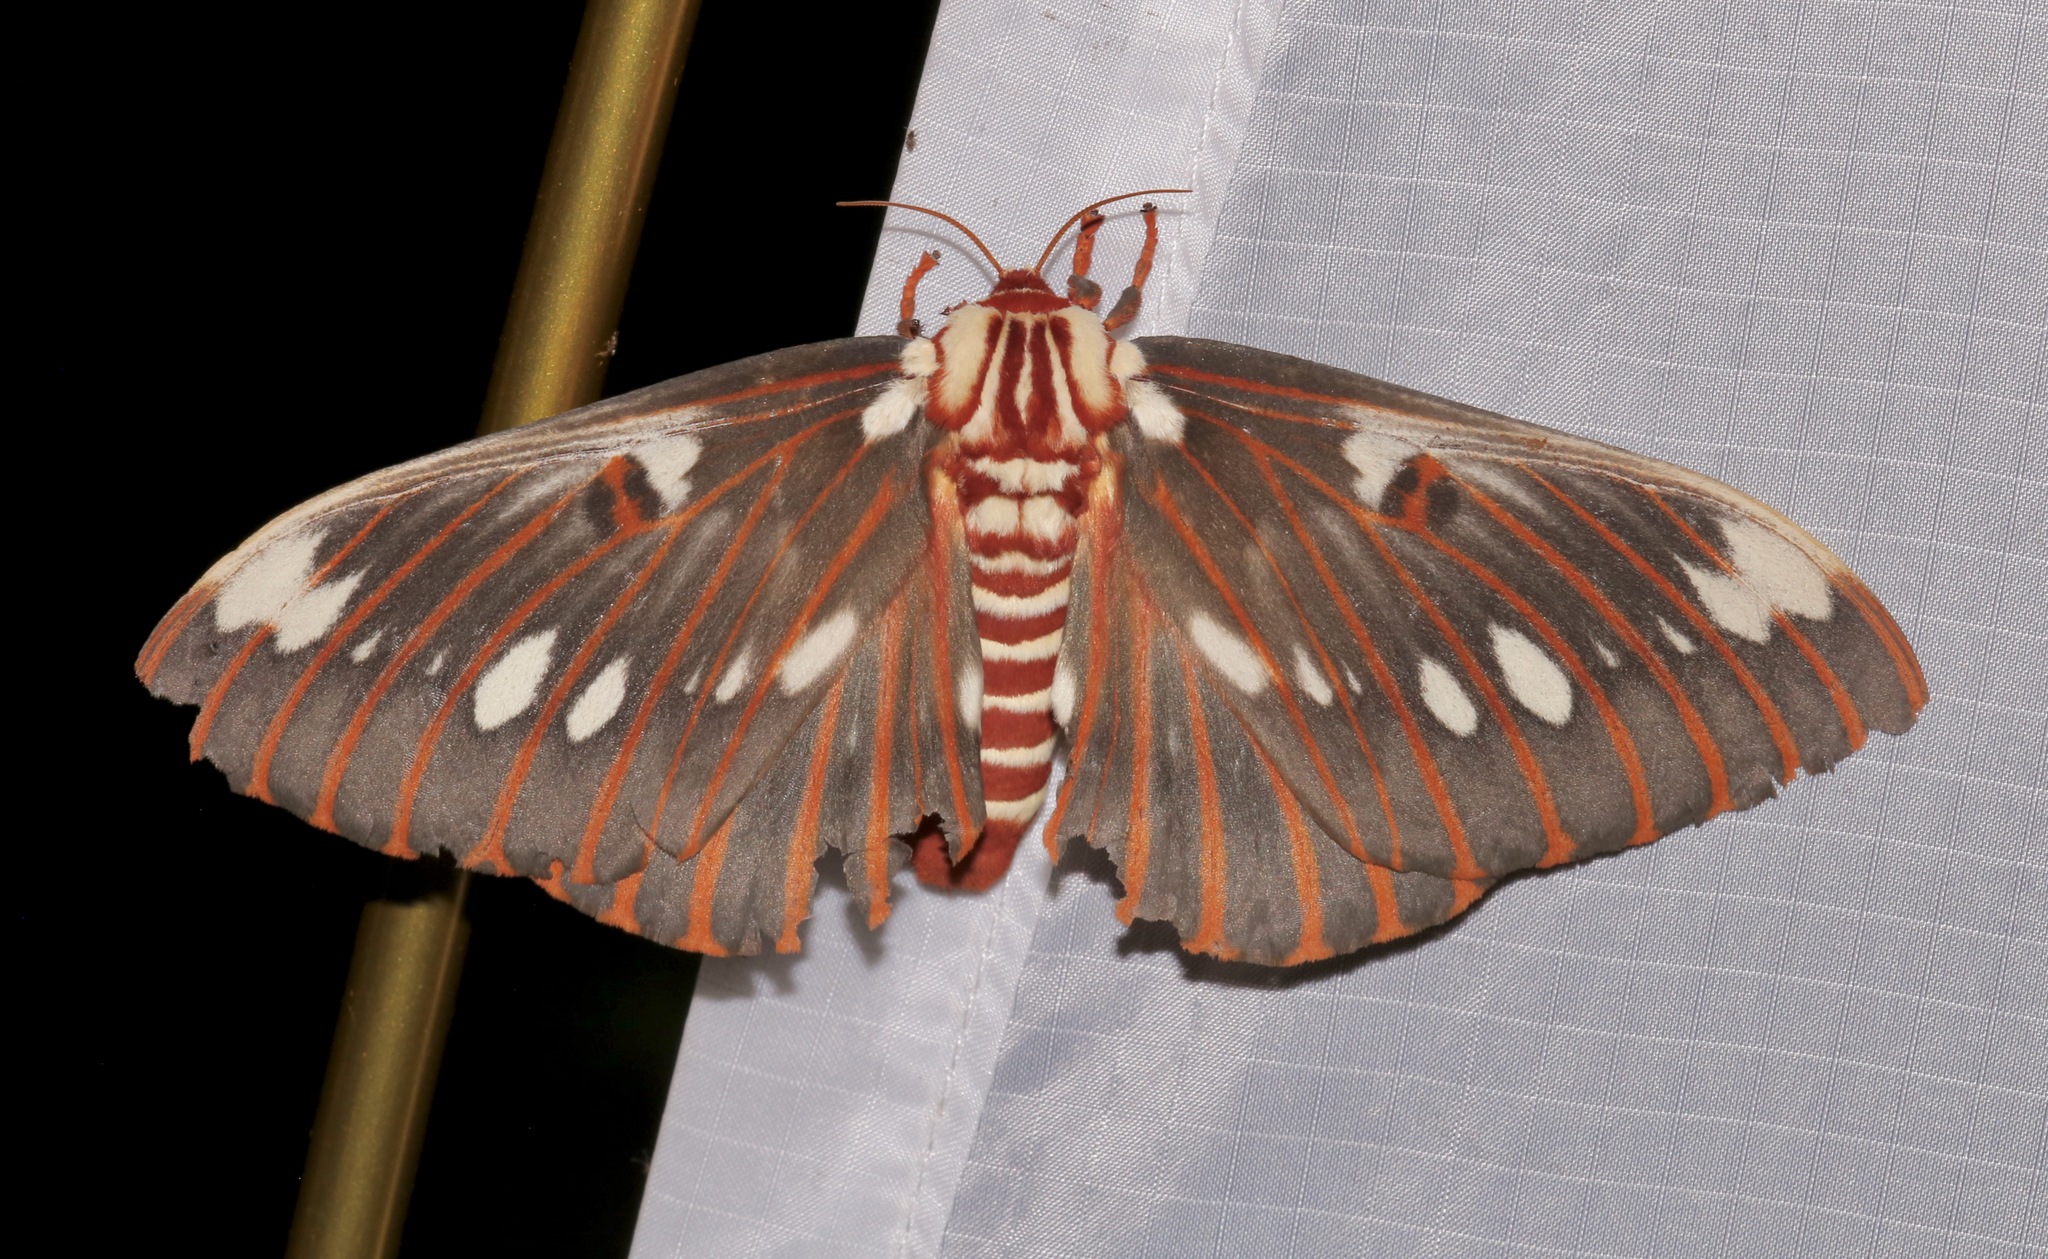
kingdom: Animalia
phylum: Arthropoda
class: Insecta
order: Lepidoptera
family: Saturniidae
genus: Citheronia
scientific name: Citheronia splendens
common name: Splendid royal moth
